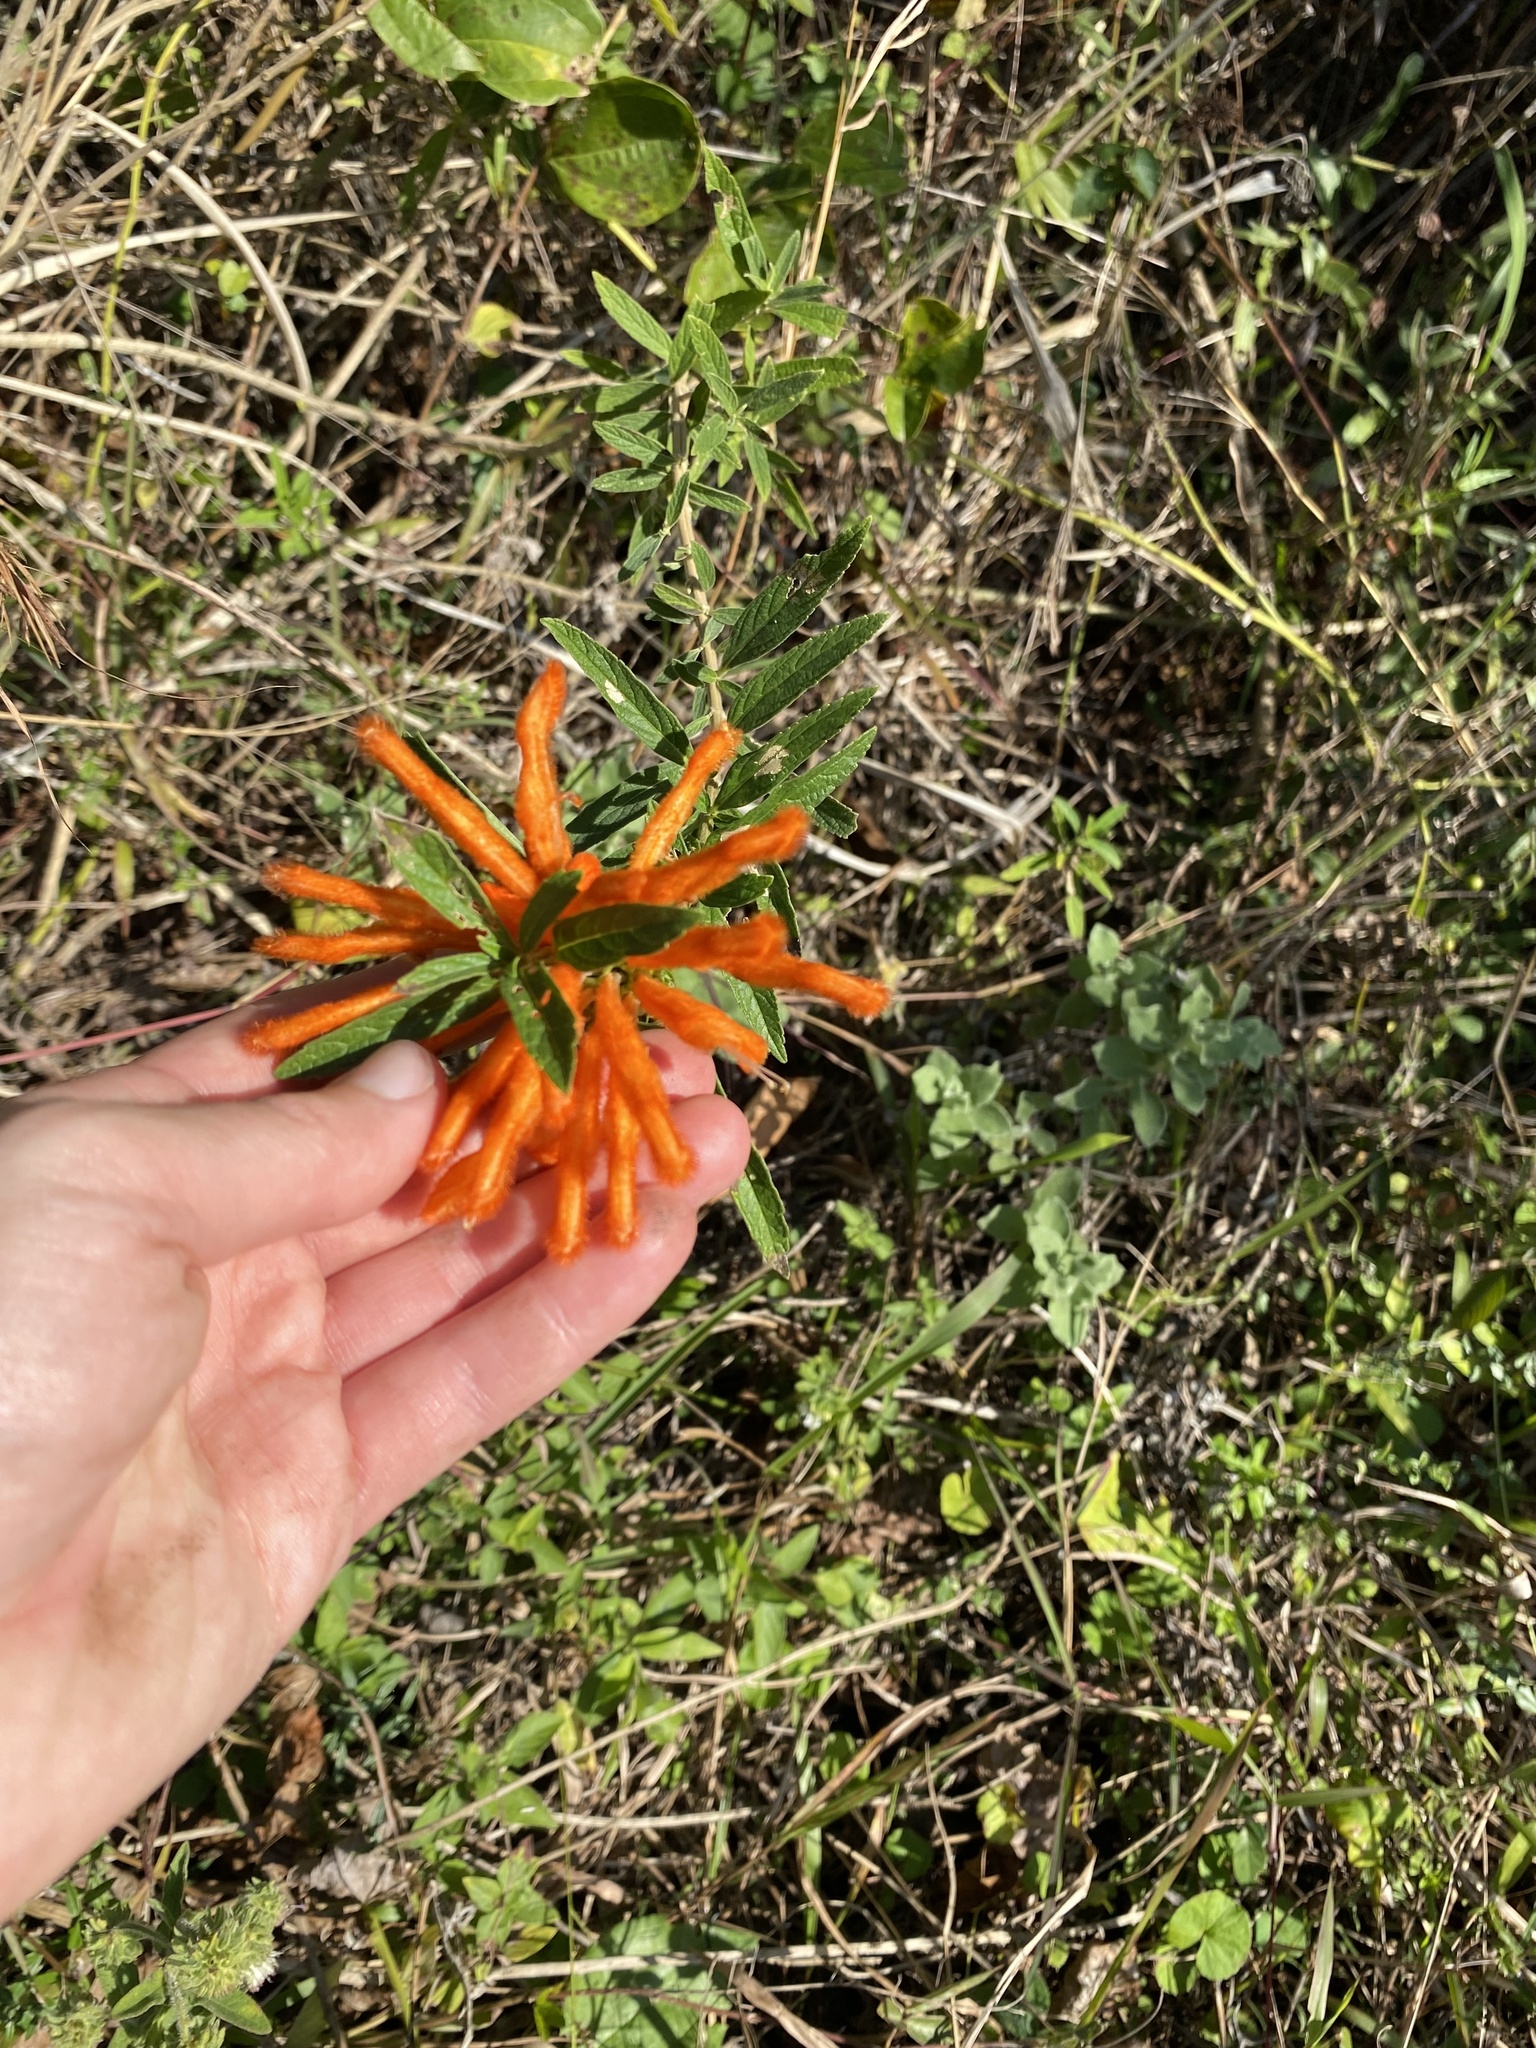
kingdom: Plantae
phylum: Tracheophyta
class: Magnoliopsida
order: Lamiales
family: Lamiaceae
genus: Leonotis
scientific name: Leonotis leonurus
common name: Lion's ear
